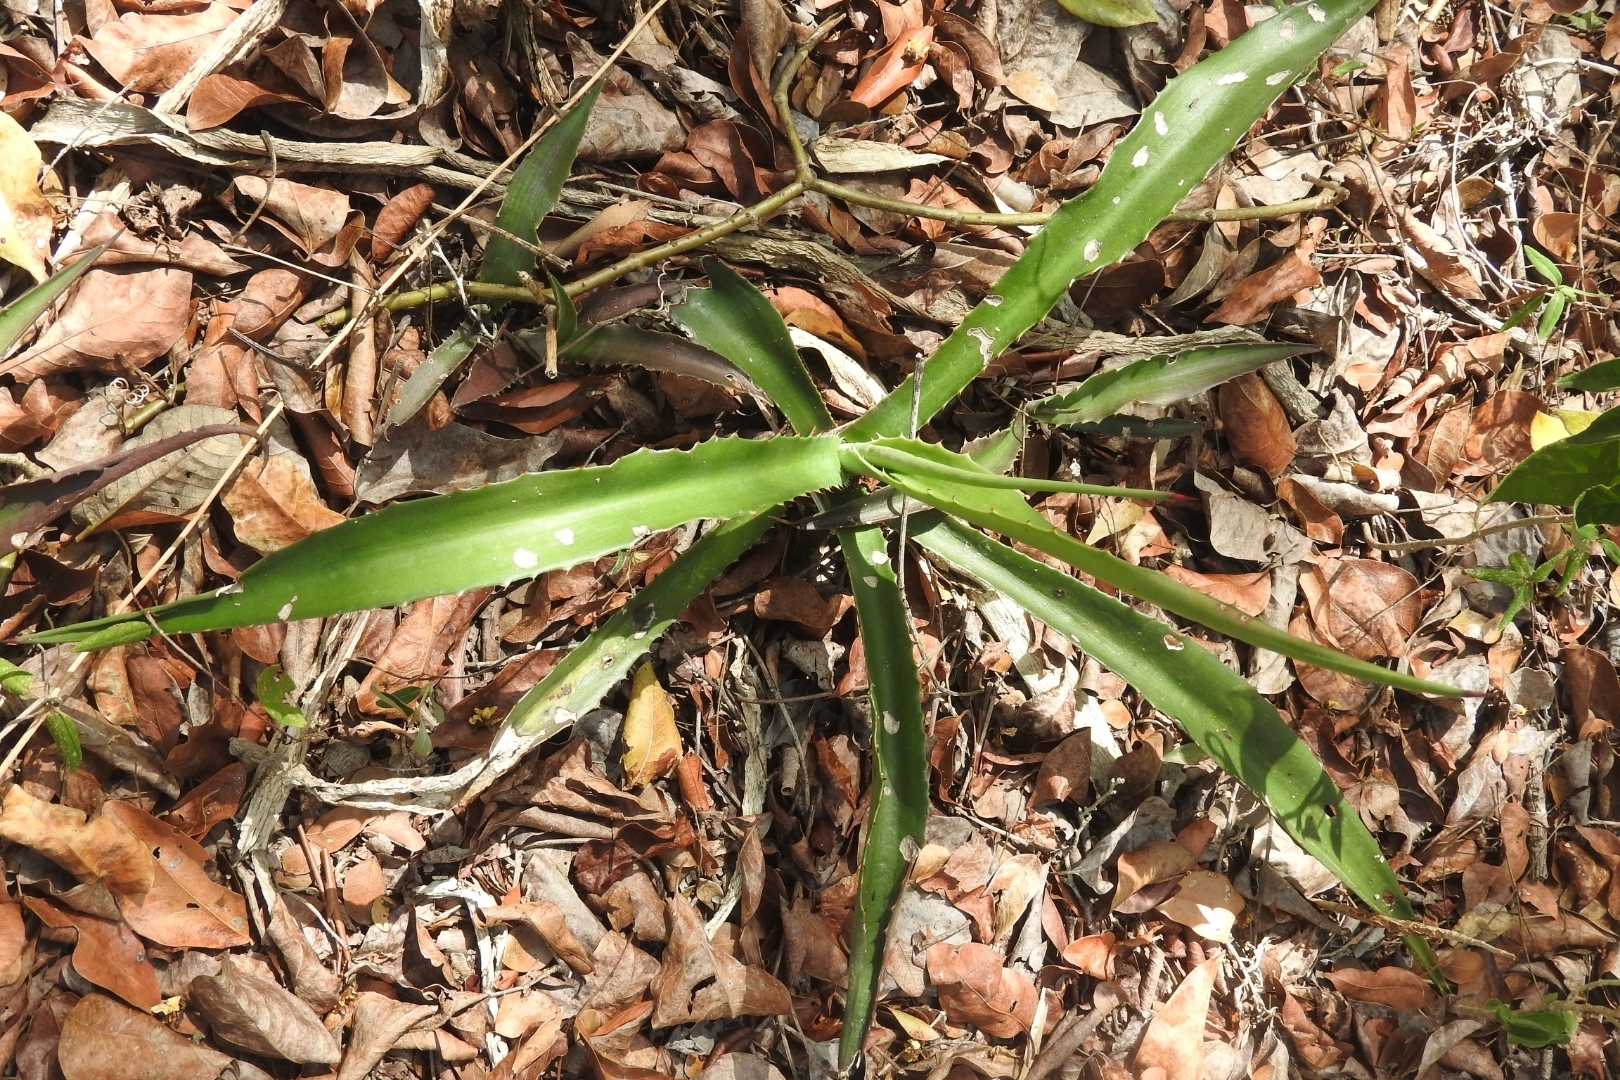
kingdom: Plantae
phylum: Tracheophyta
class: Liliopsida
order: Asparagales
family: Asparagaceae
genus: Agave
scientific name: Agave angustifolia
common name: Mescal agave
